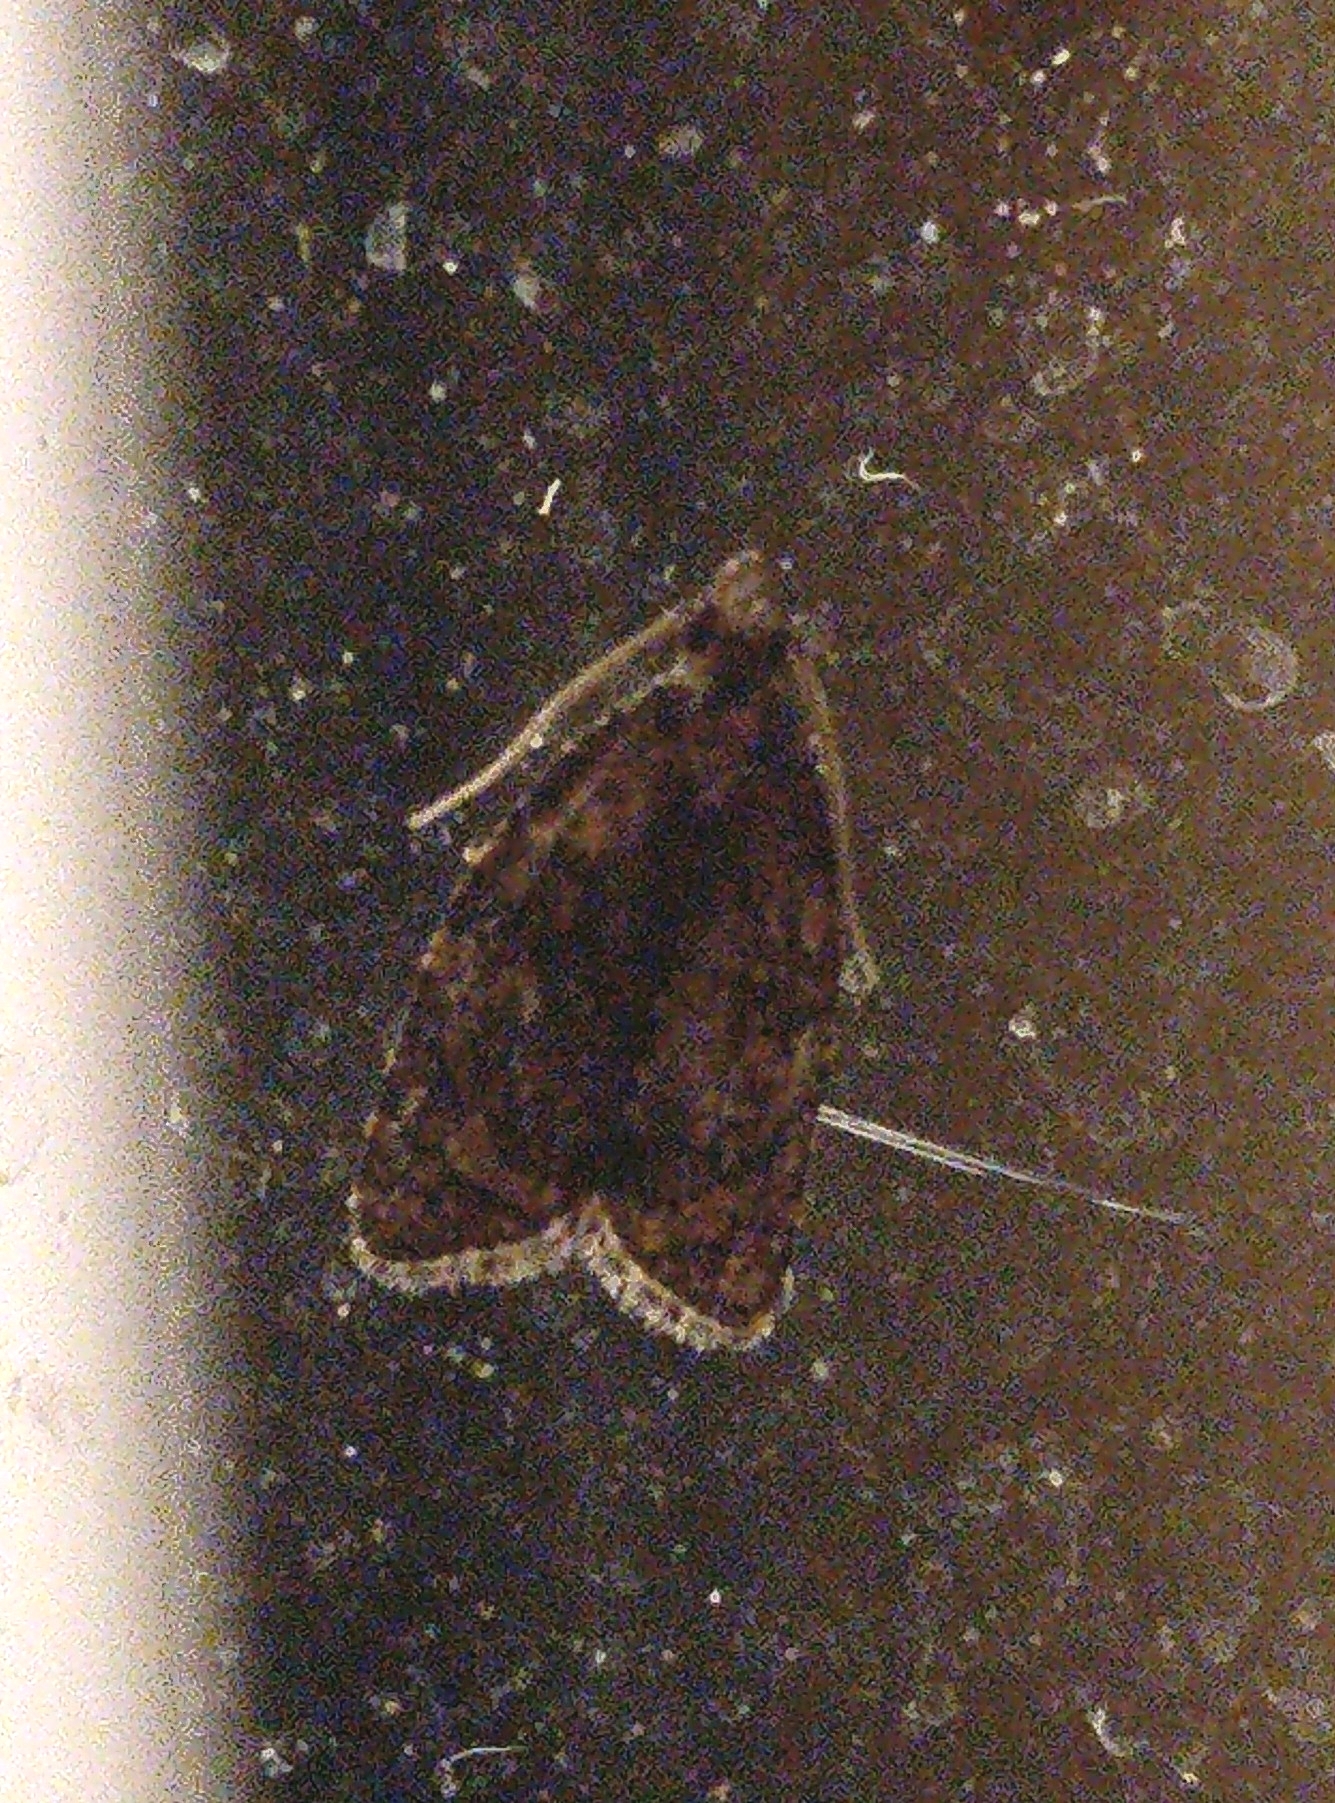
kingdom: Animalia
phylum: Arthropoda
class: Insecta
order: Lepidoptera
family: Tortricidae
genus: Capua
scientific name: Capua intractana
